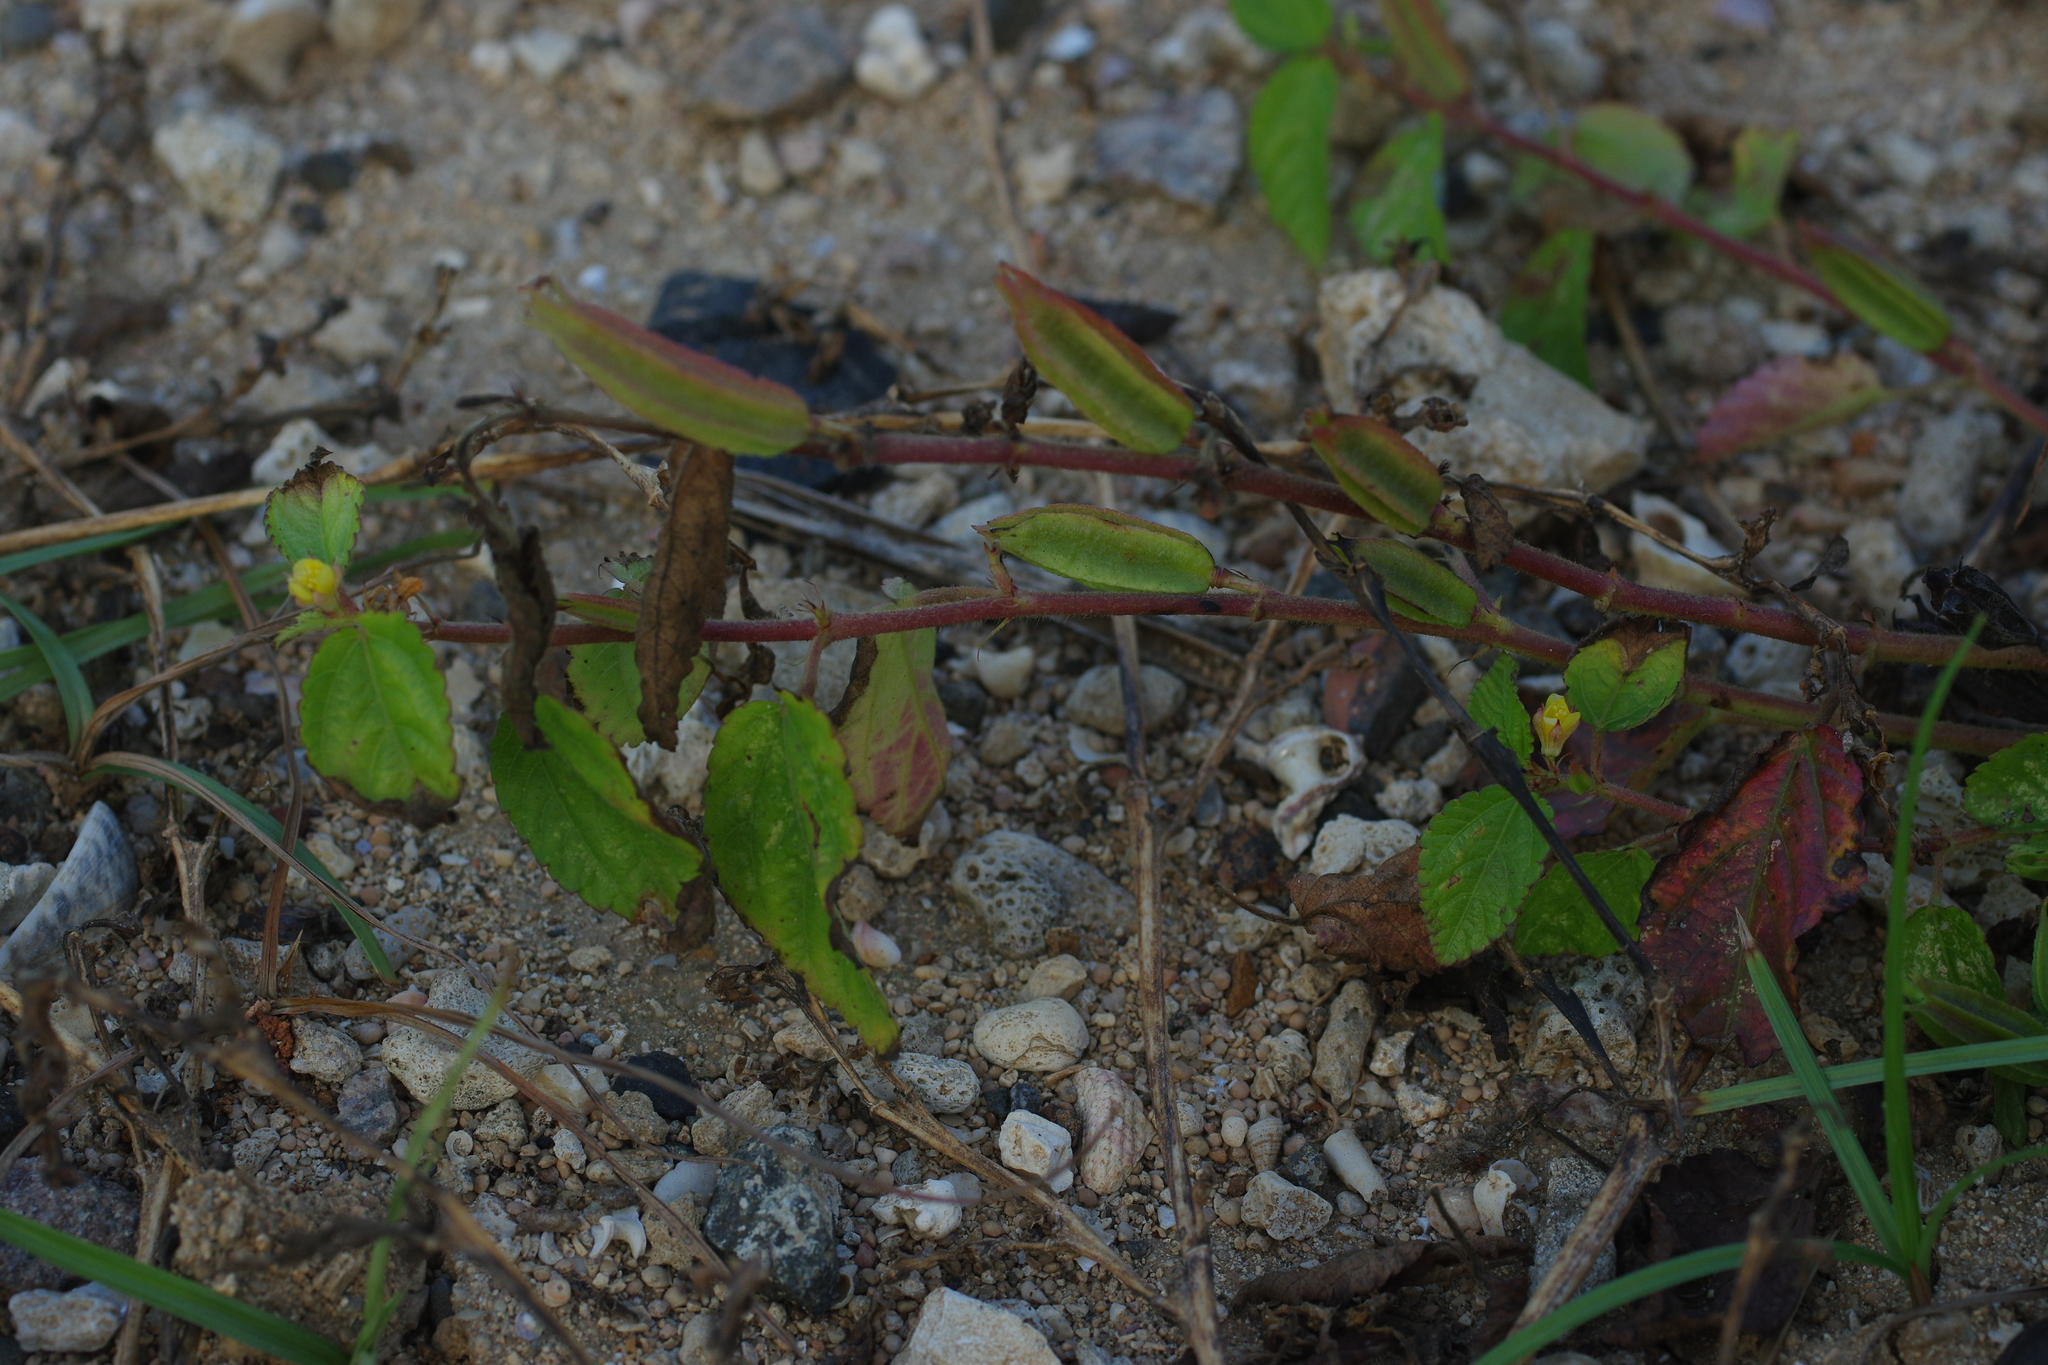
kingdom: Plantae
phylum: Tracheophyta
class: Magnoliopsida
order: Malvales
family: Malvaceae
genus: Corchorus
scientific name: Corchorus aestuans
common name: Jute
